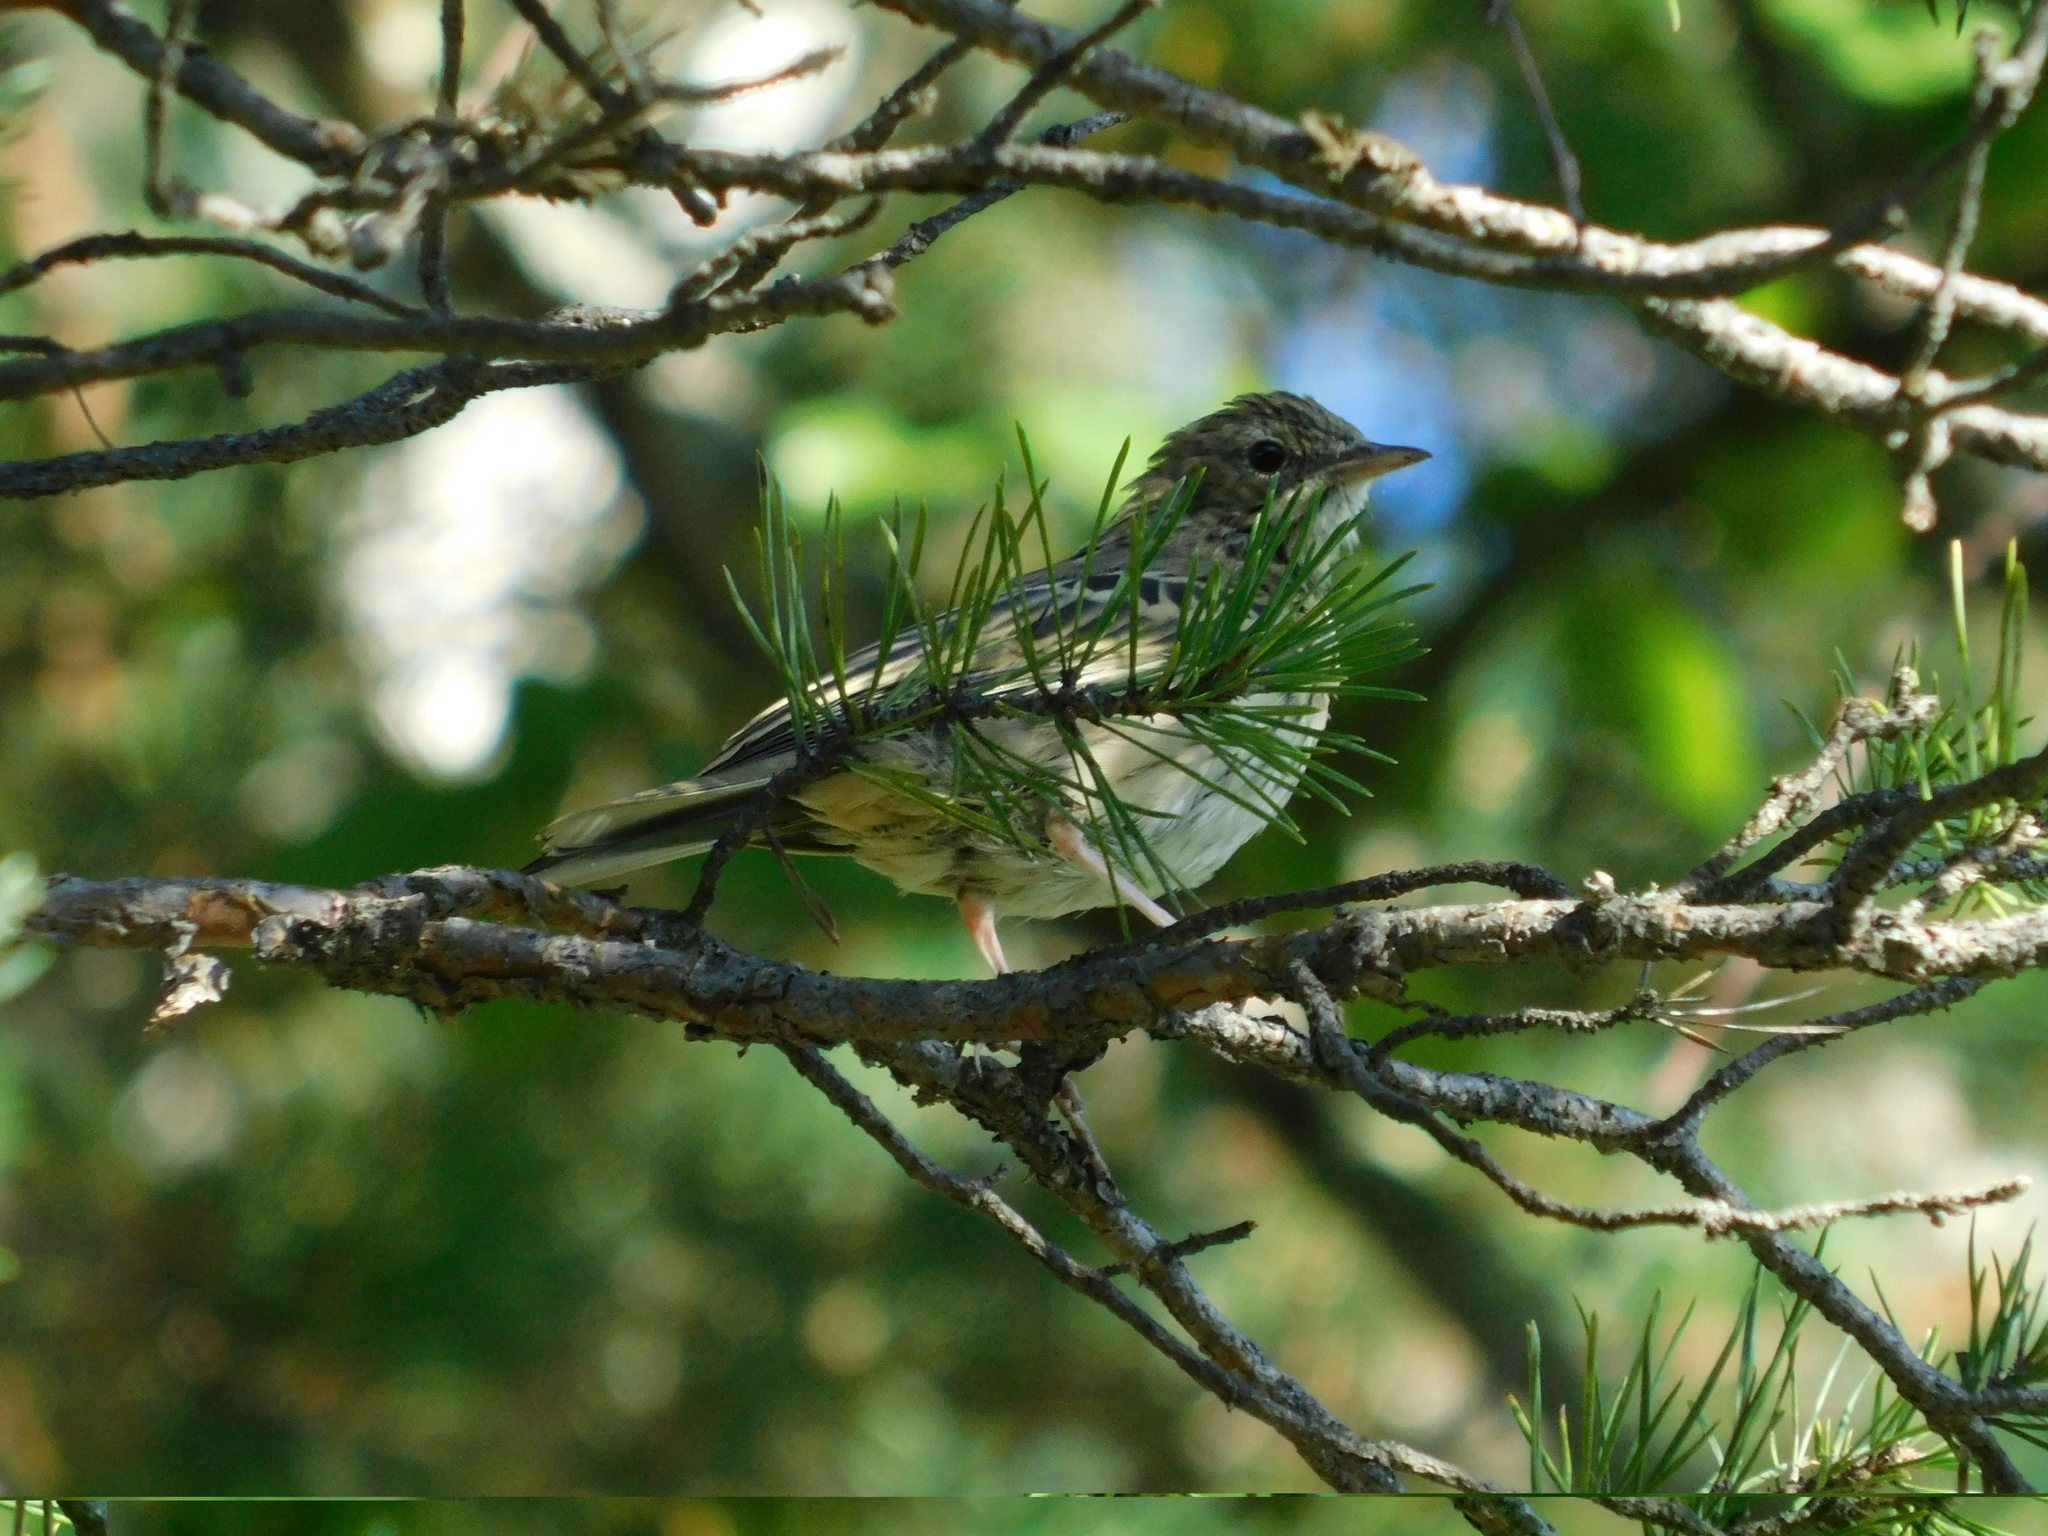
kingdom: Animalia
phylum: Chordata
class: Aves
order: Passeriformes
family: Motacillidae
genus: Anthus
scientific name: Anthus trivialis
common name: Tree pipit
